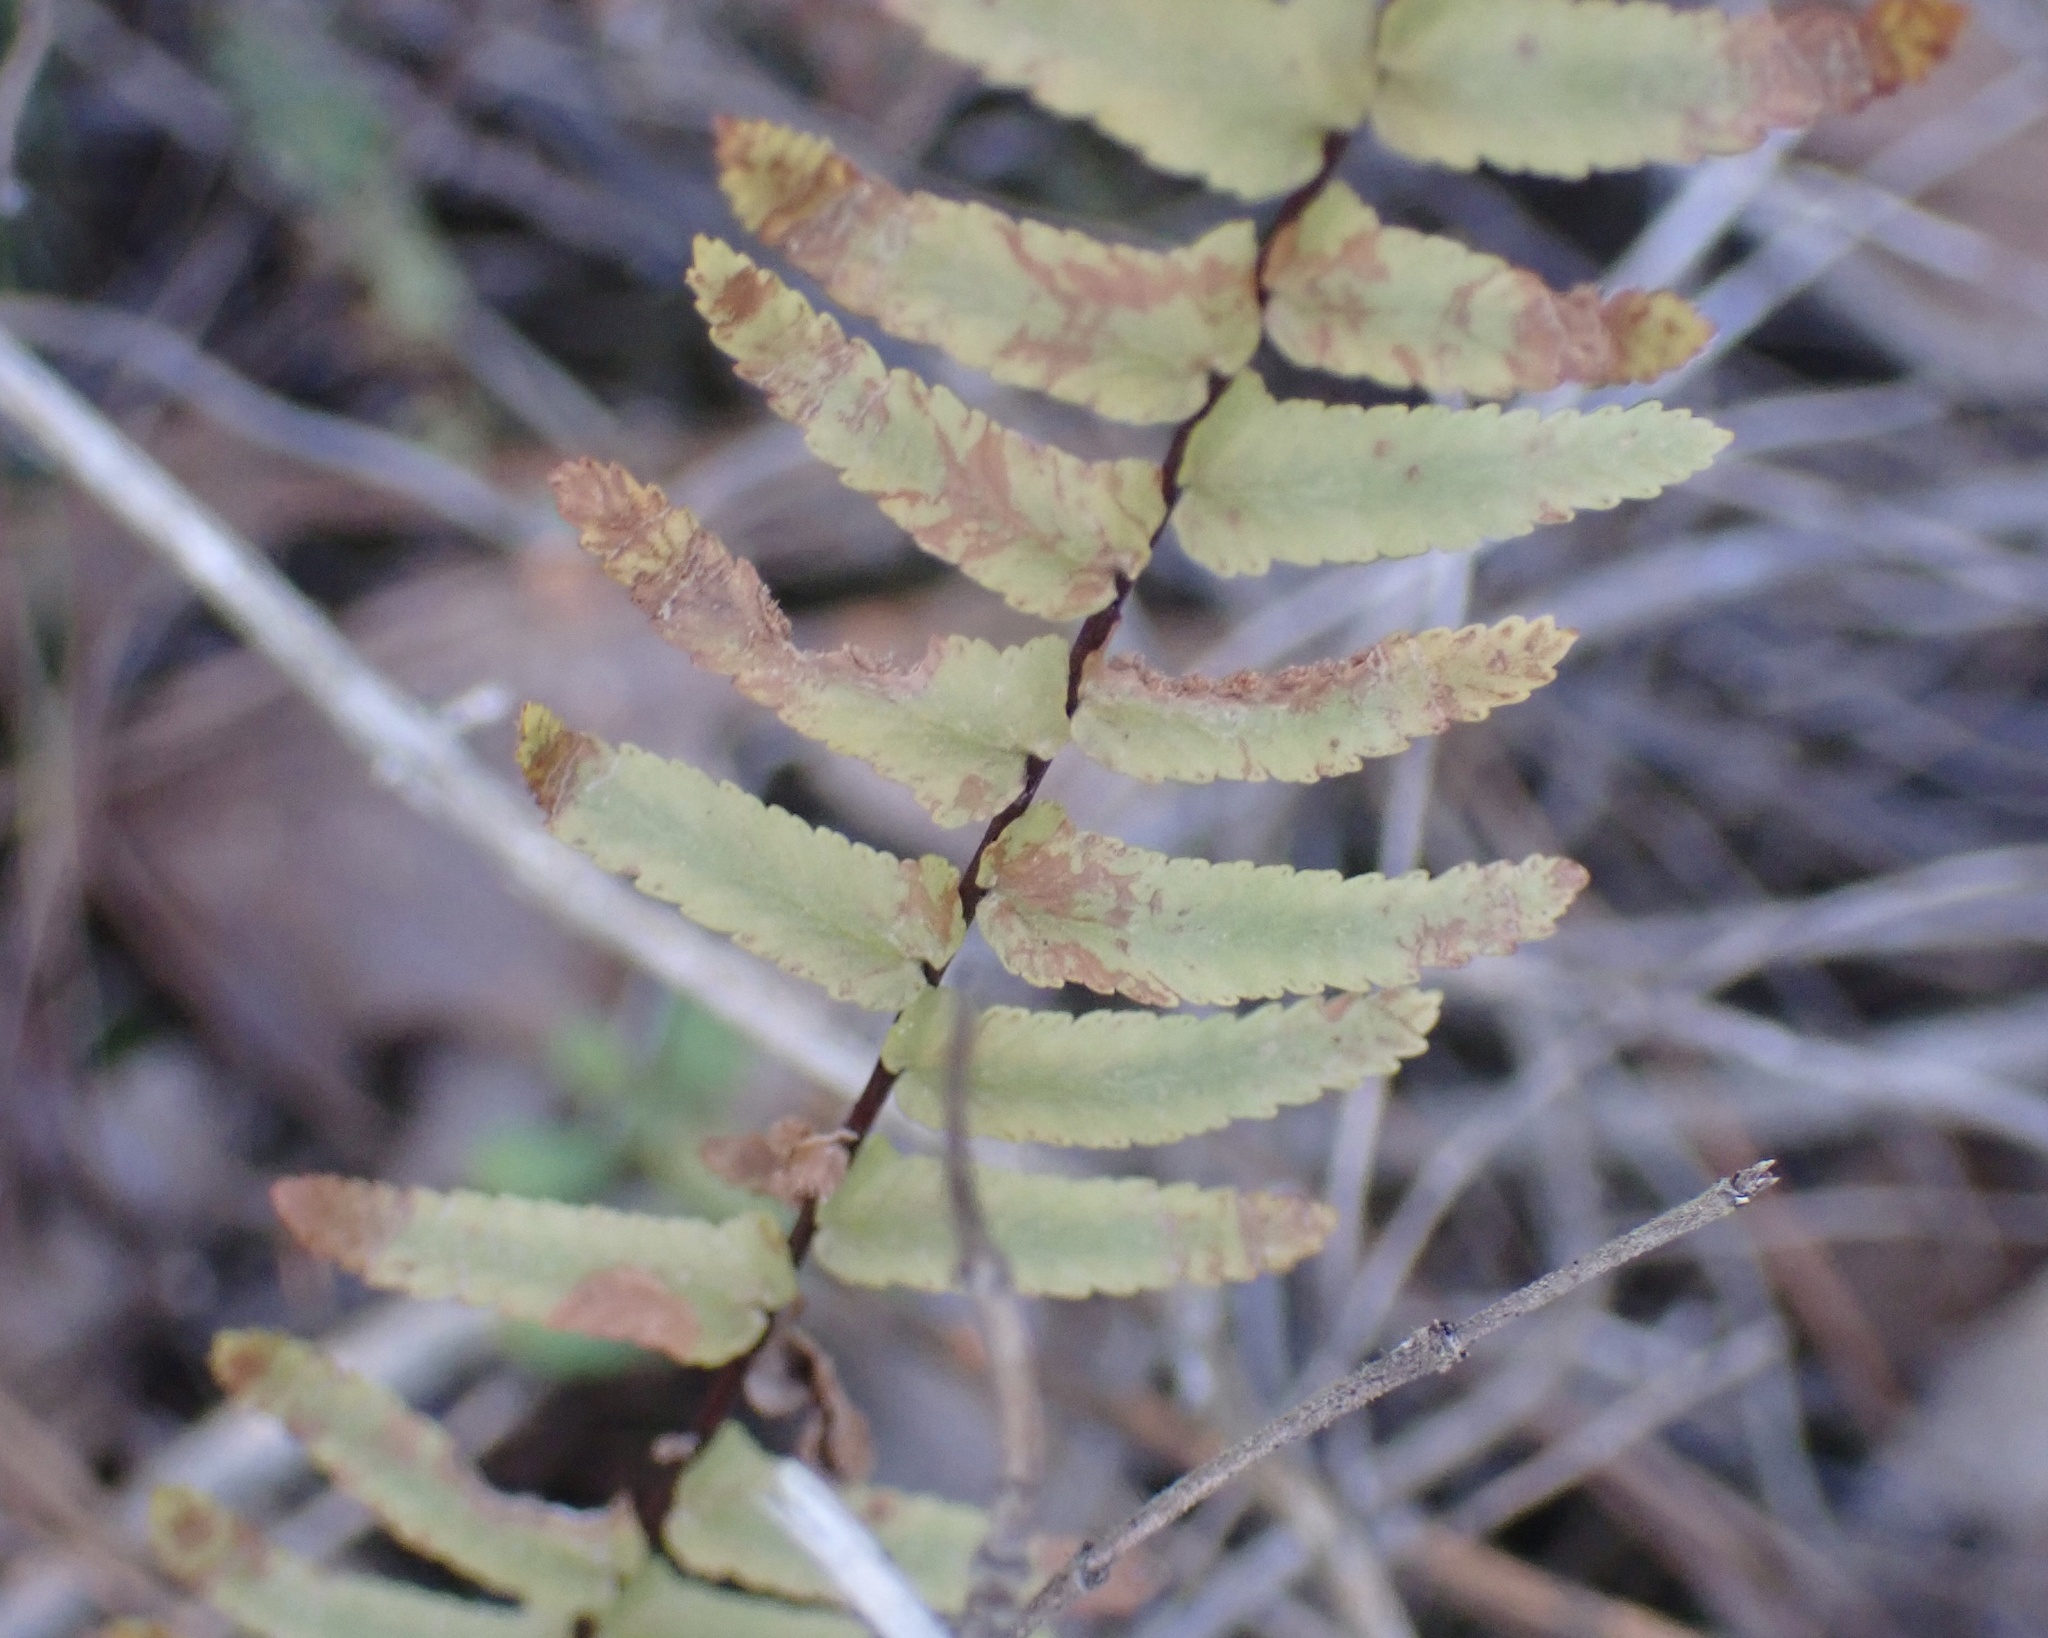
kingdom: Plantae
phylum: Tracheophyta
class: Polypodiopsida
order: Polypodiales
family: Aspleniaceae
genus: Asplenium
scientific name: Asplenium platyneuron
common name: Ebony spleenwort
